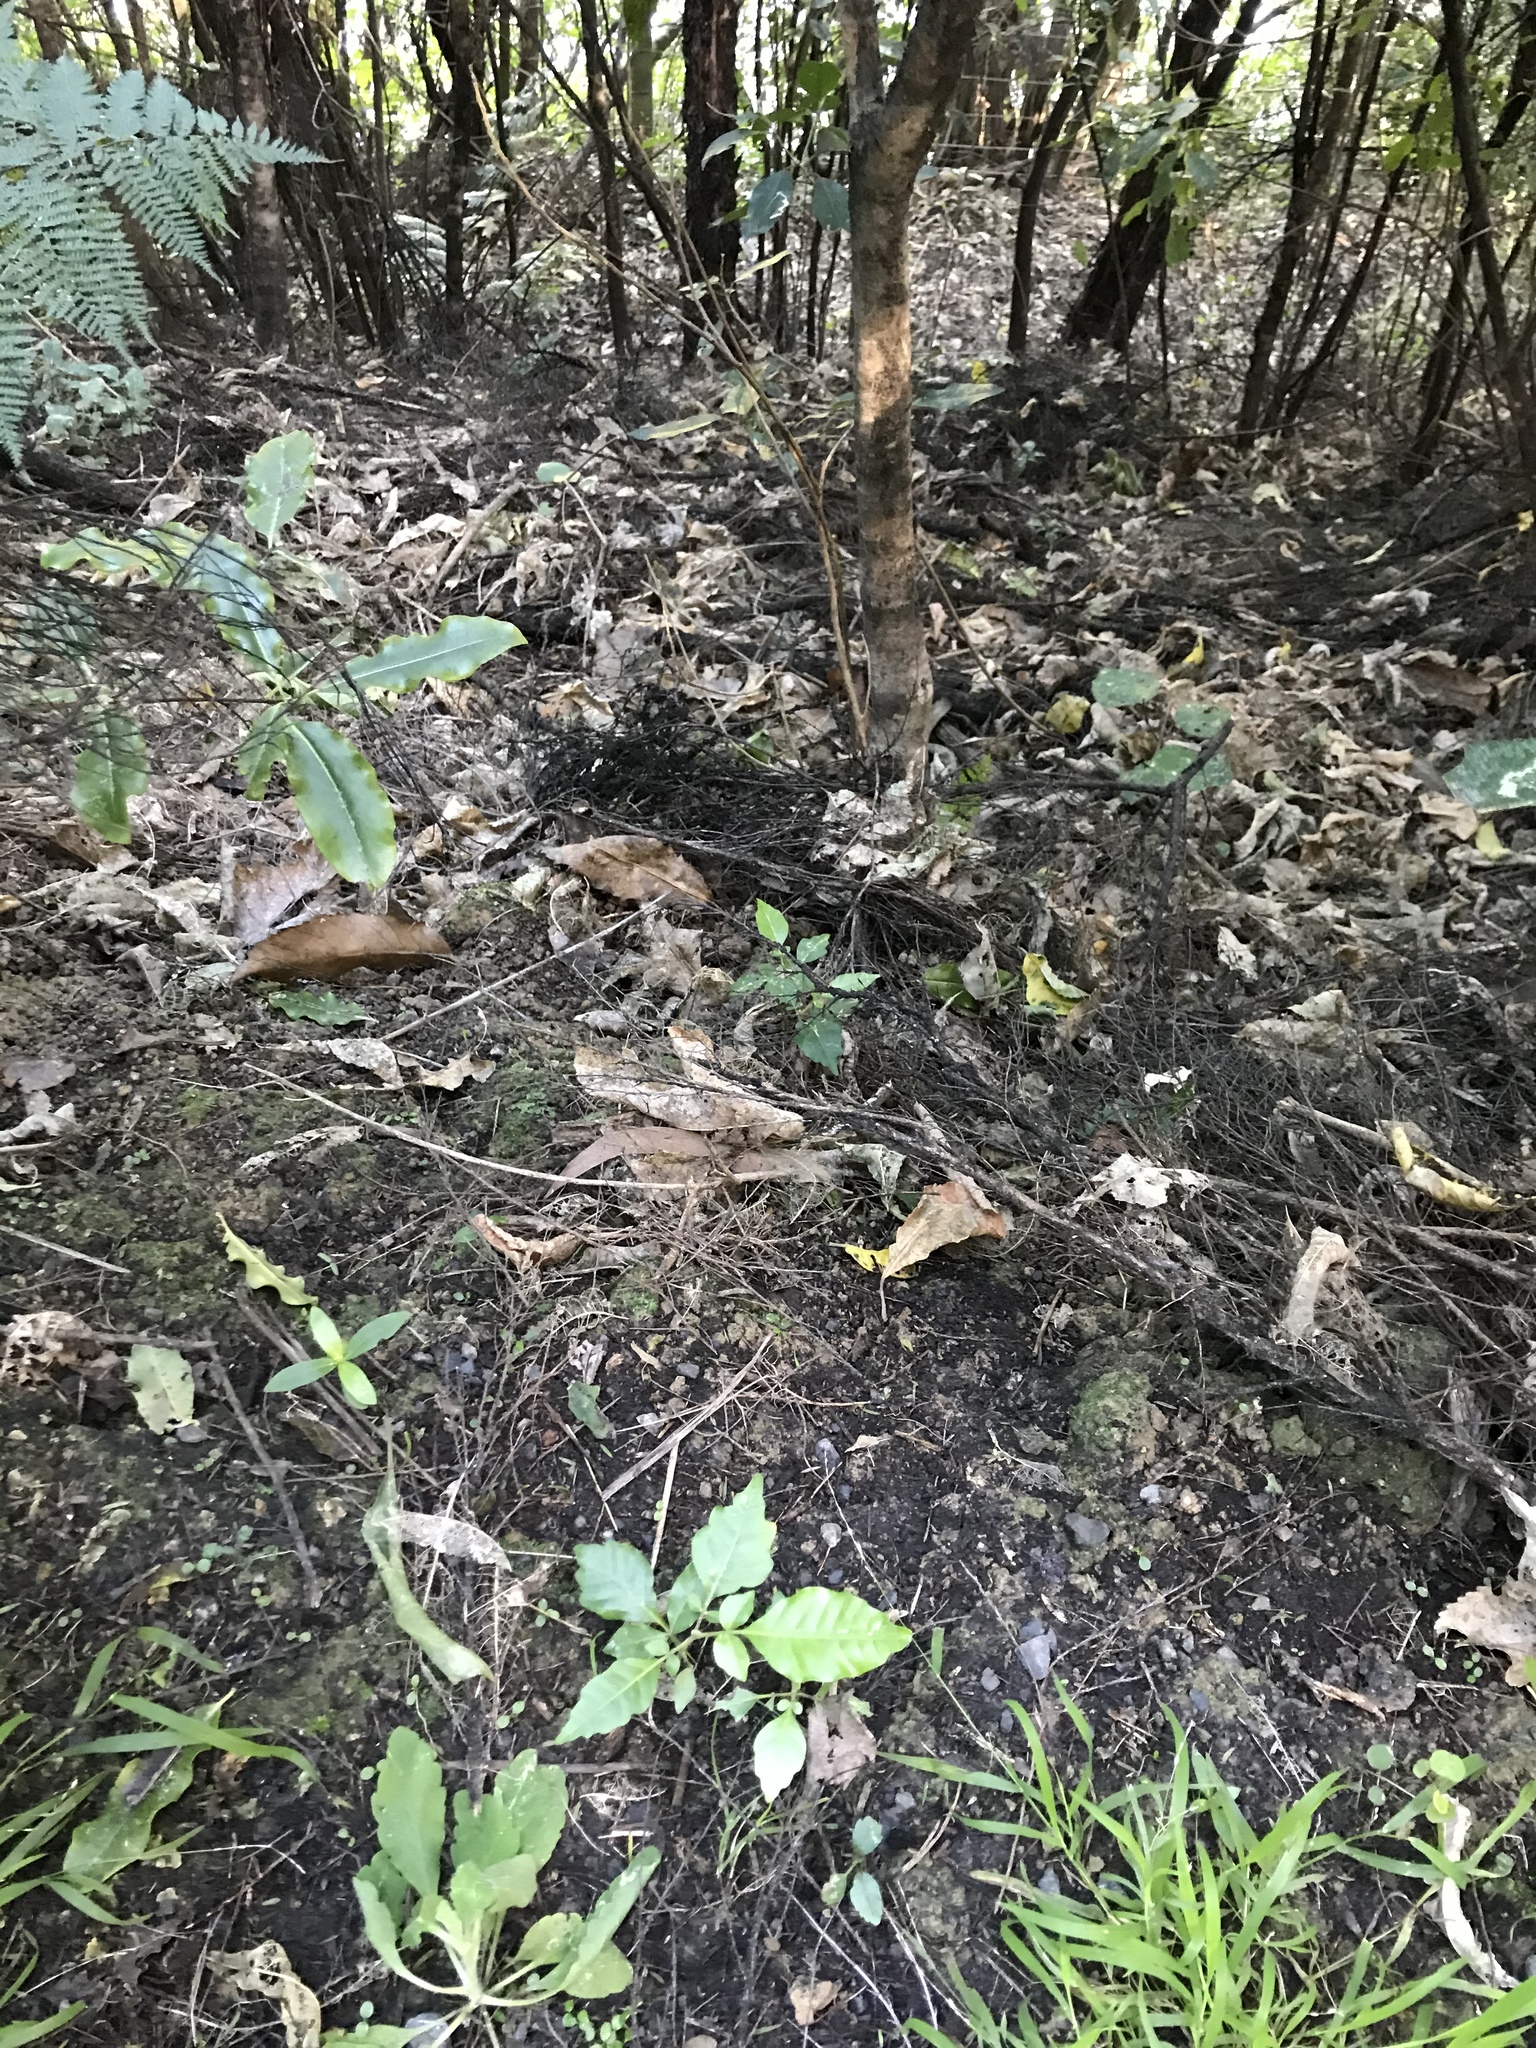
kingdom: Plantae
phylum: Tracheophyta
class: Magnoliopsida
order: Sapindales
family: Meliaceae
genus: Didymocheton
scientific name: Didymocheton spectabilis
